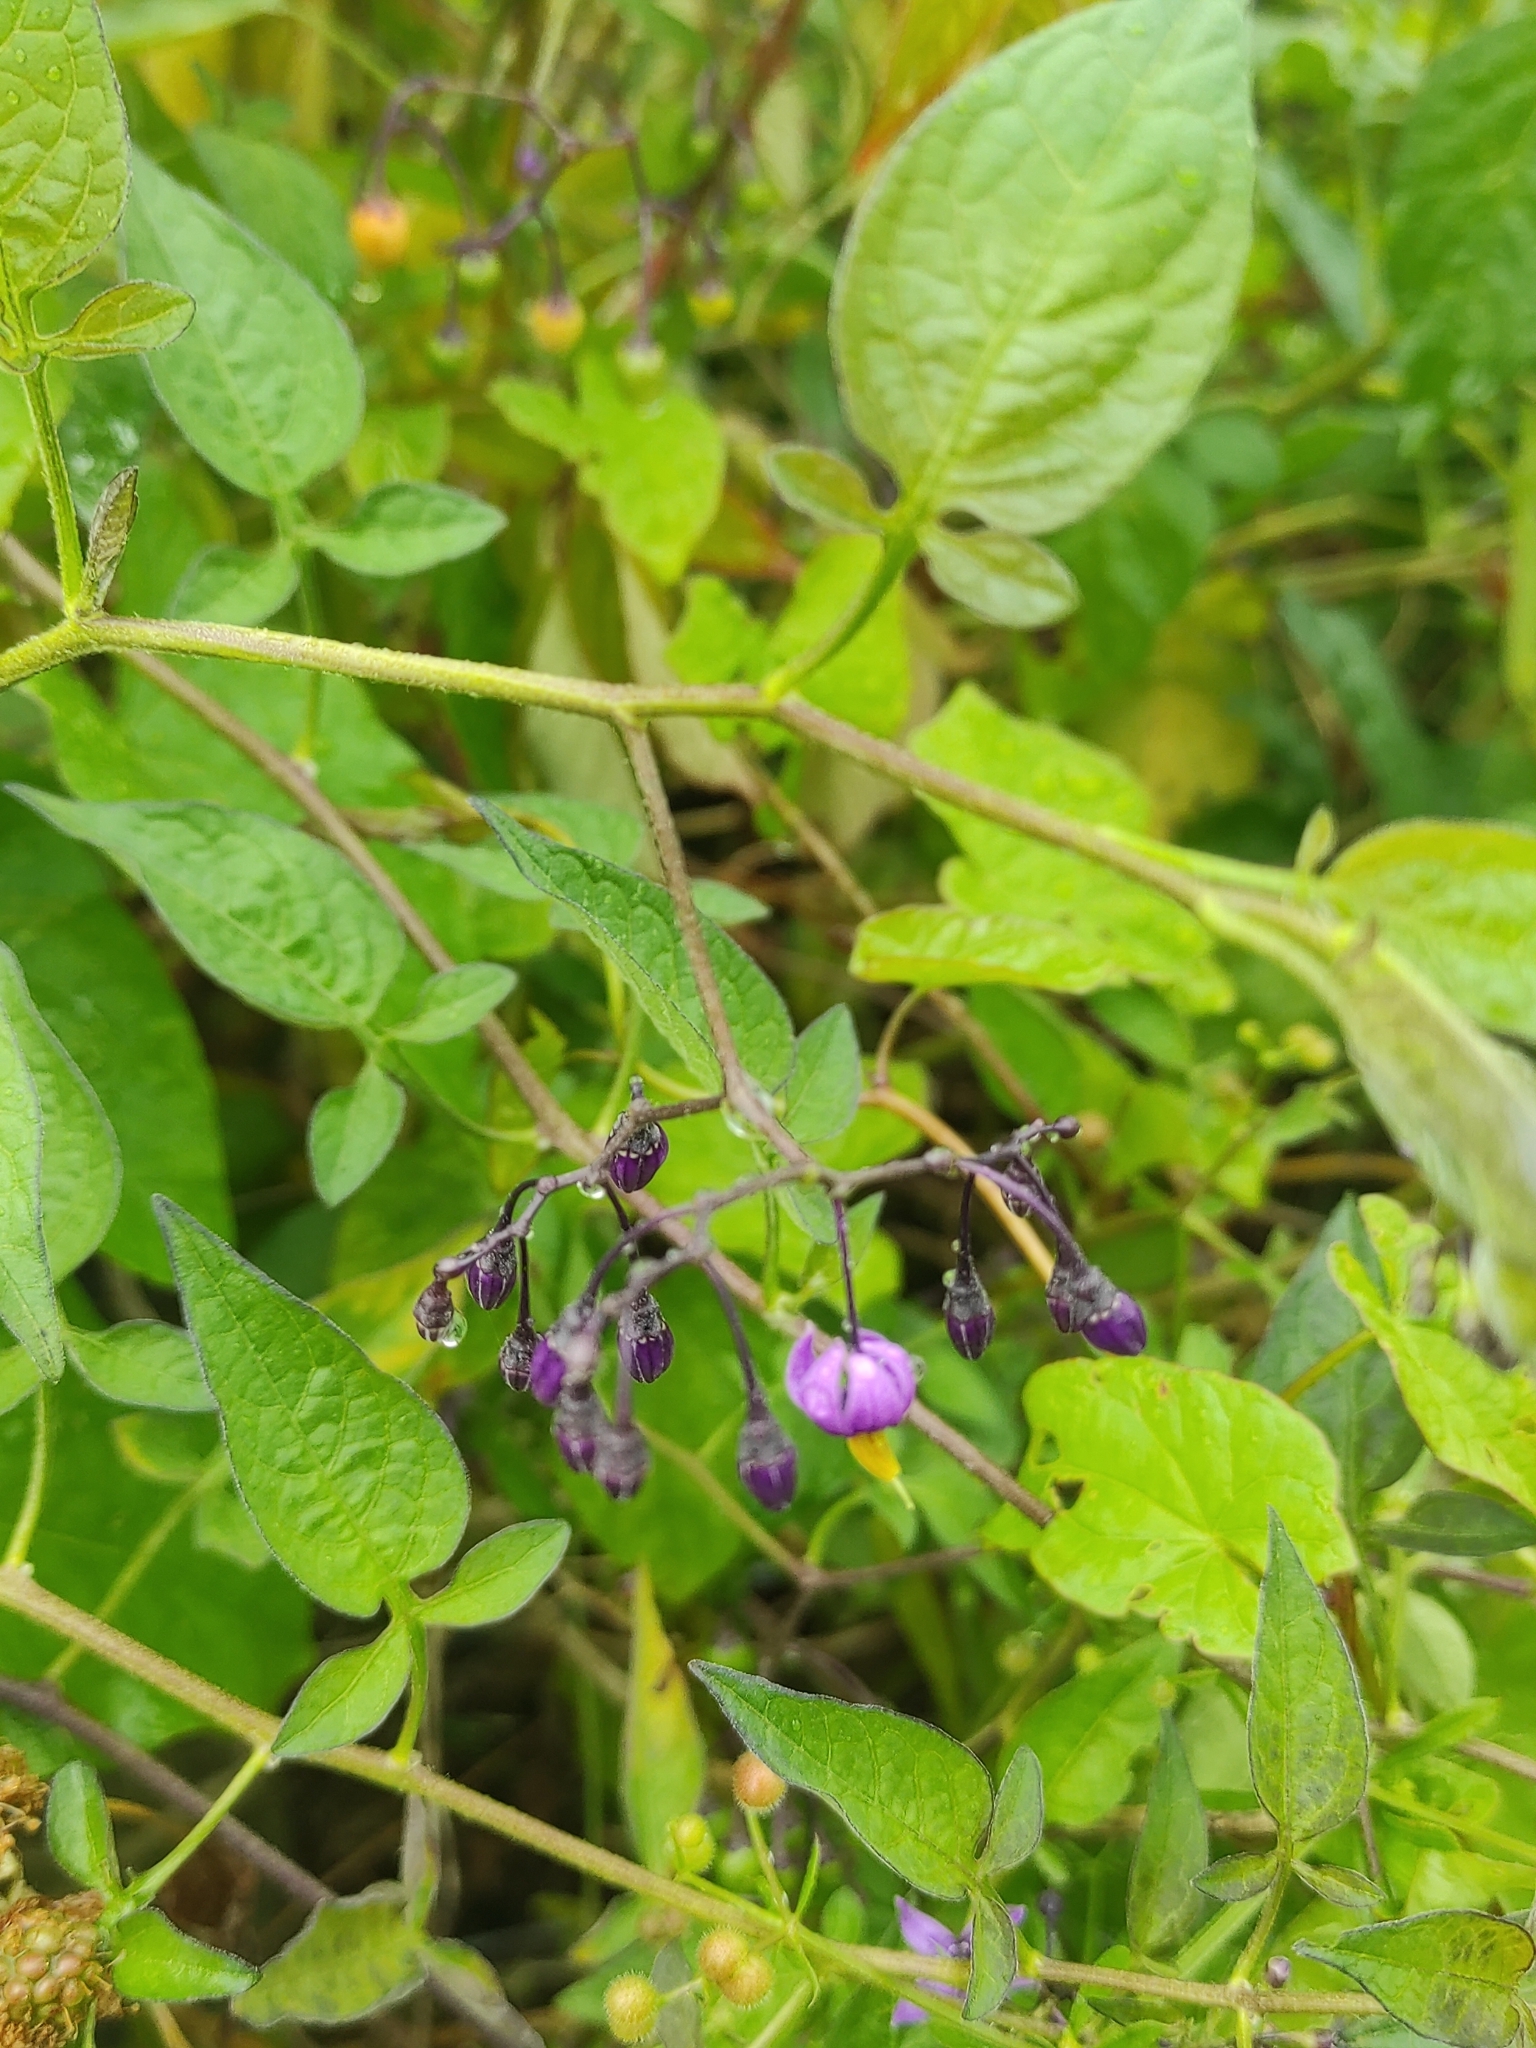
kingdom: Plantae
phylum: Tracheophyta
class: Magnoliopsida
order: Solanales
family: Solanaceae
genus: Solanum
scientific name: Solanum dulcamara
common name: Climbing nightshade
